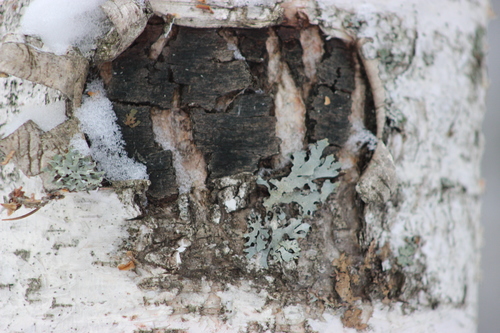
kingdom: Fungi
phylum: Ascomycota
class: Lecanoromycetes
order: Lecanorales
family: Parmeliaceae
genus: Parmelia
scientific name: Parmelia sulcata
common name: Netted shield lichen
